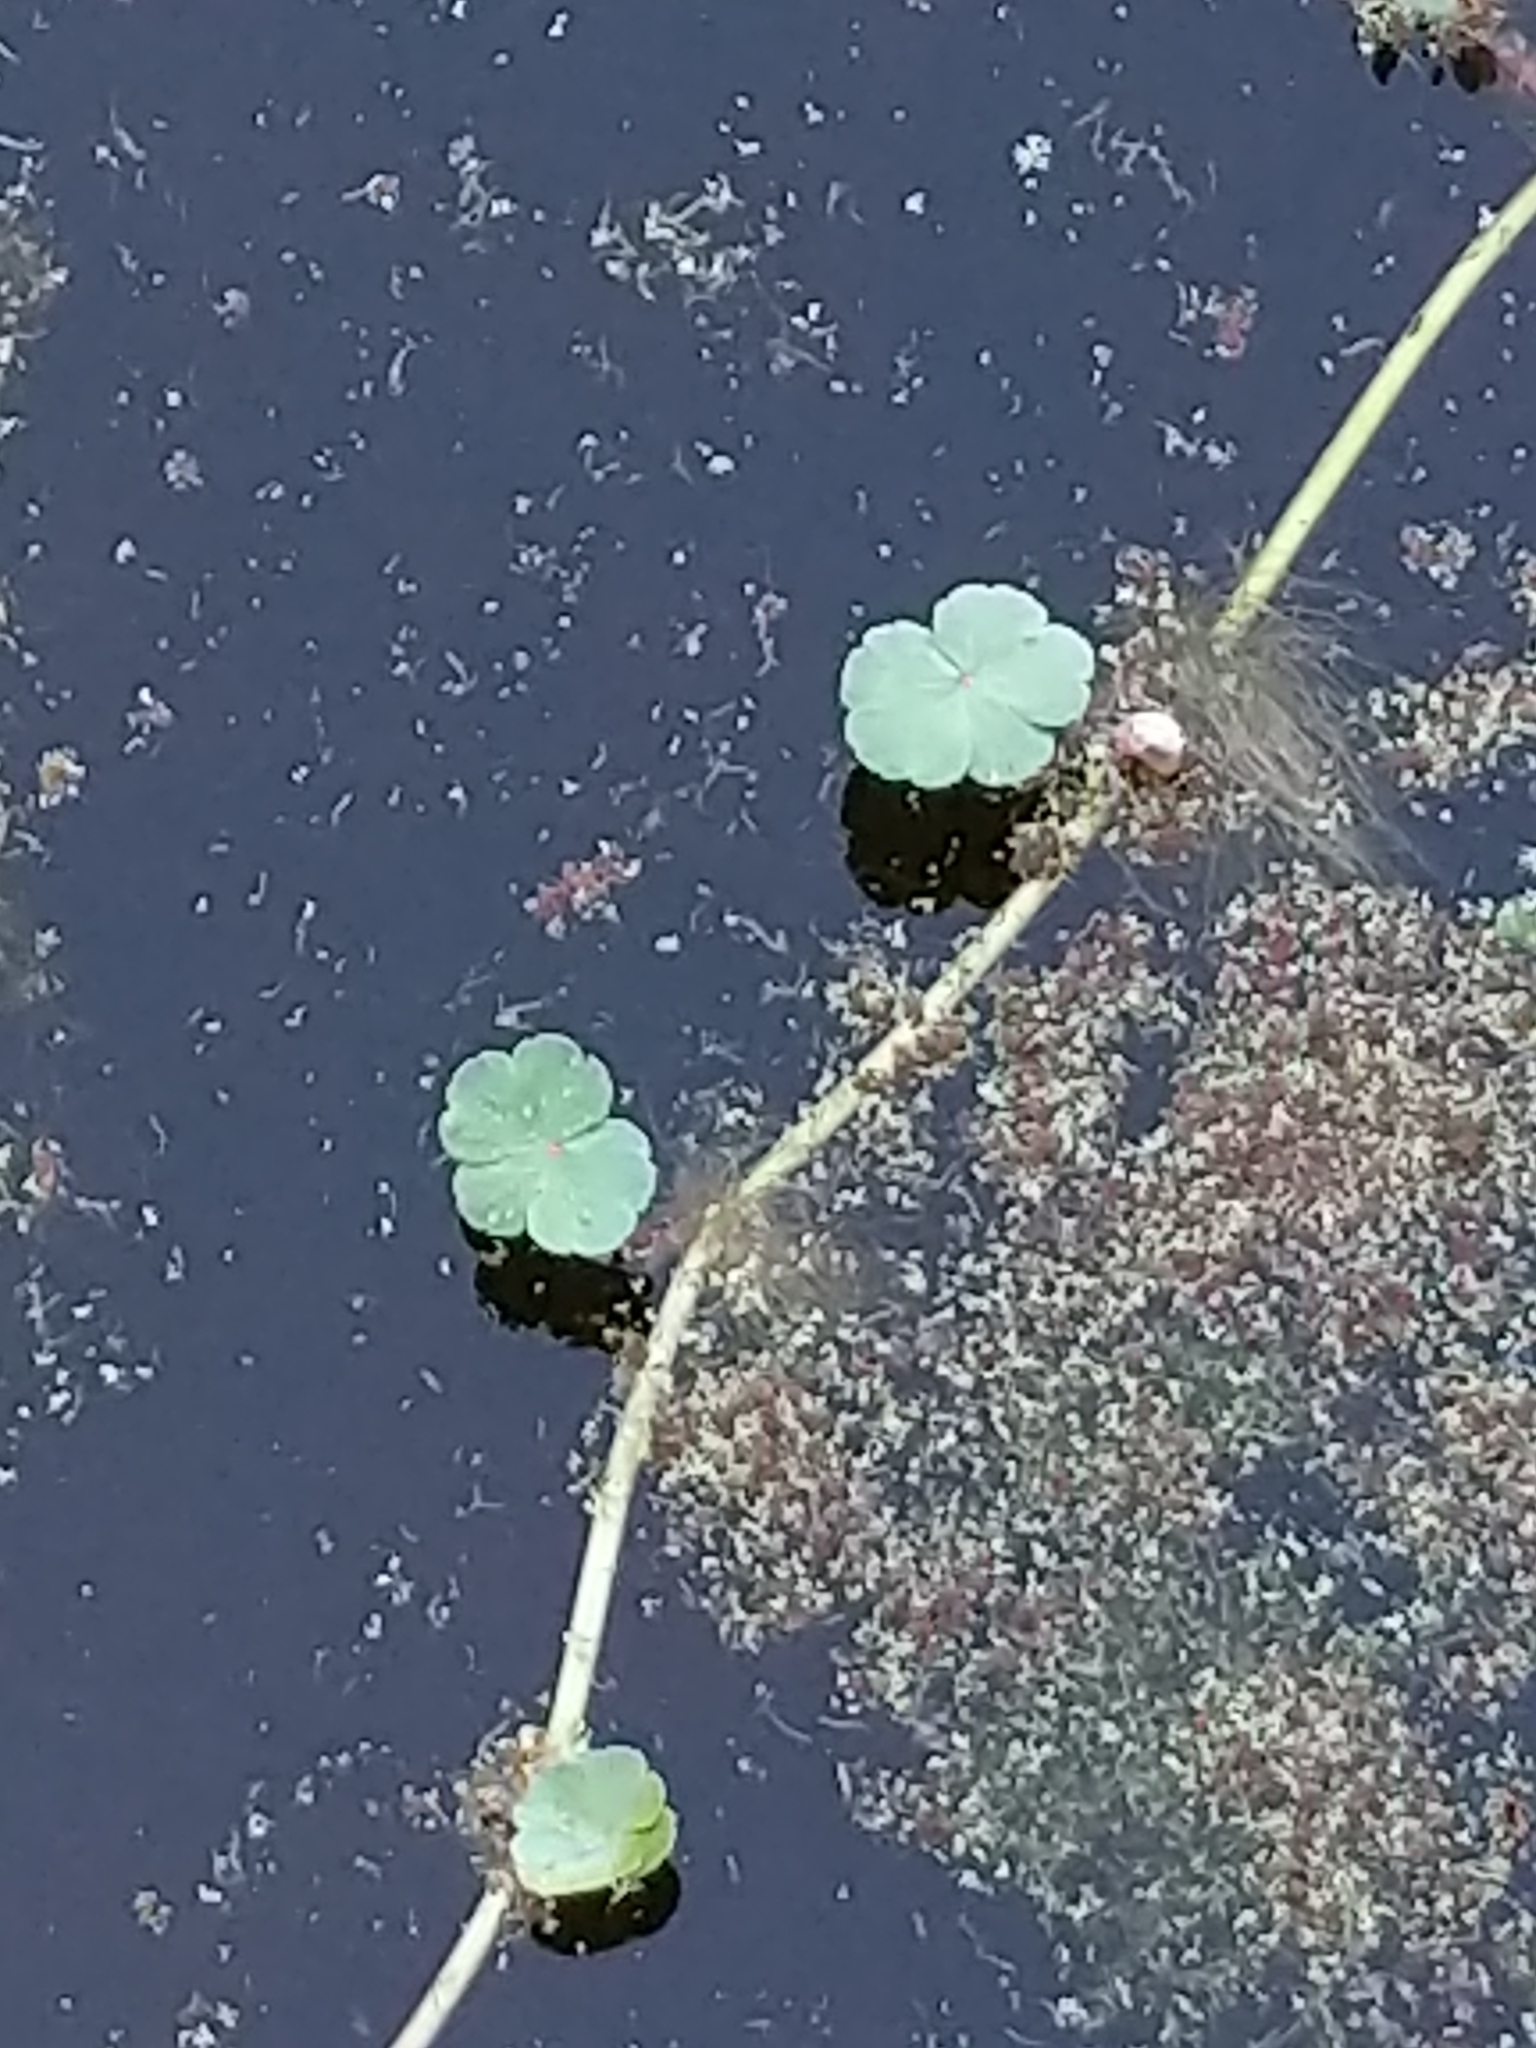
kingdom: Plantae
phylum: Tracheophyta
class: Magnoliopsida
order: Apiales
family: Araliaceae
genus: Hydrocotyle
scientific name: Hydrocotyle ranunculoides
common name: Floating pennywort
